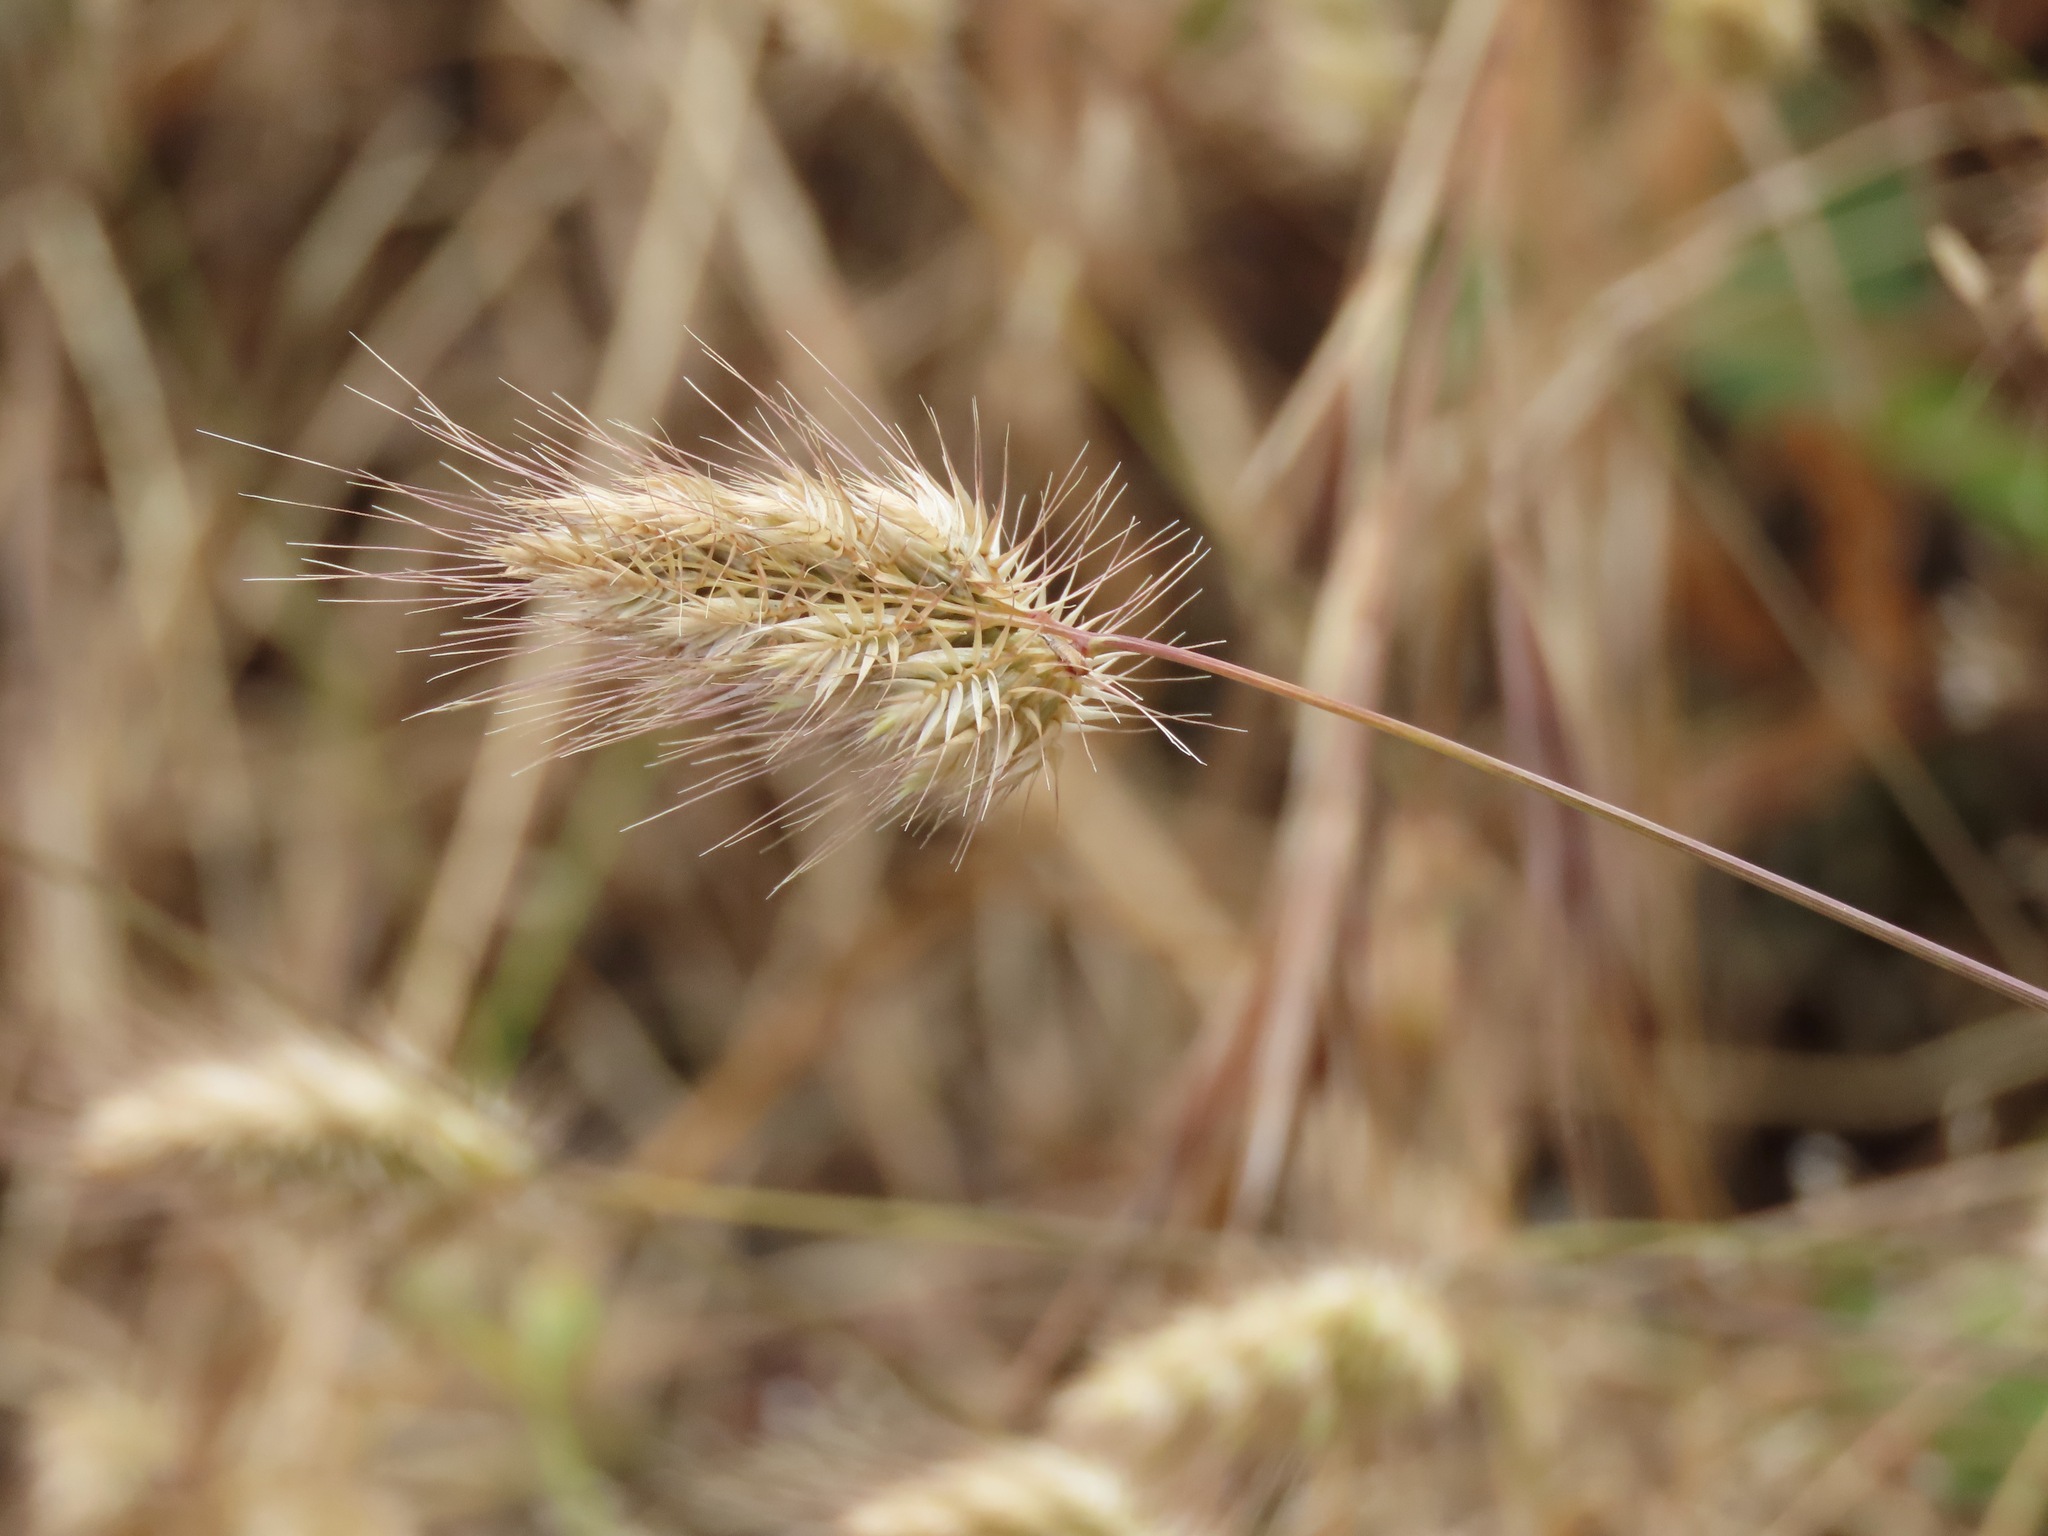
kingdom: Plantae
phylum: Tracheophyta
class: Liliopsida
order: Poales
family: Poaceae
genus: Cynosurus
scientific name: Cynosurus echinatus
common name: Rough dog's-tail
